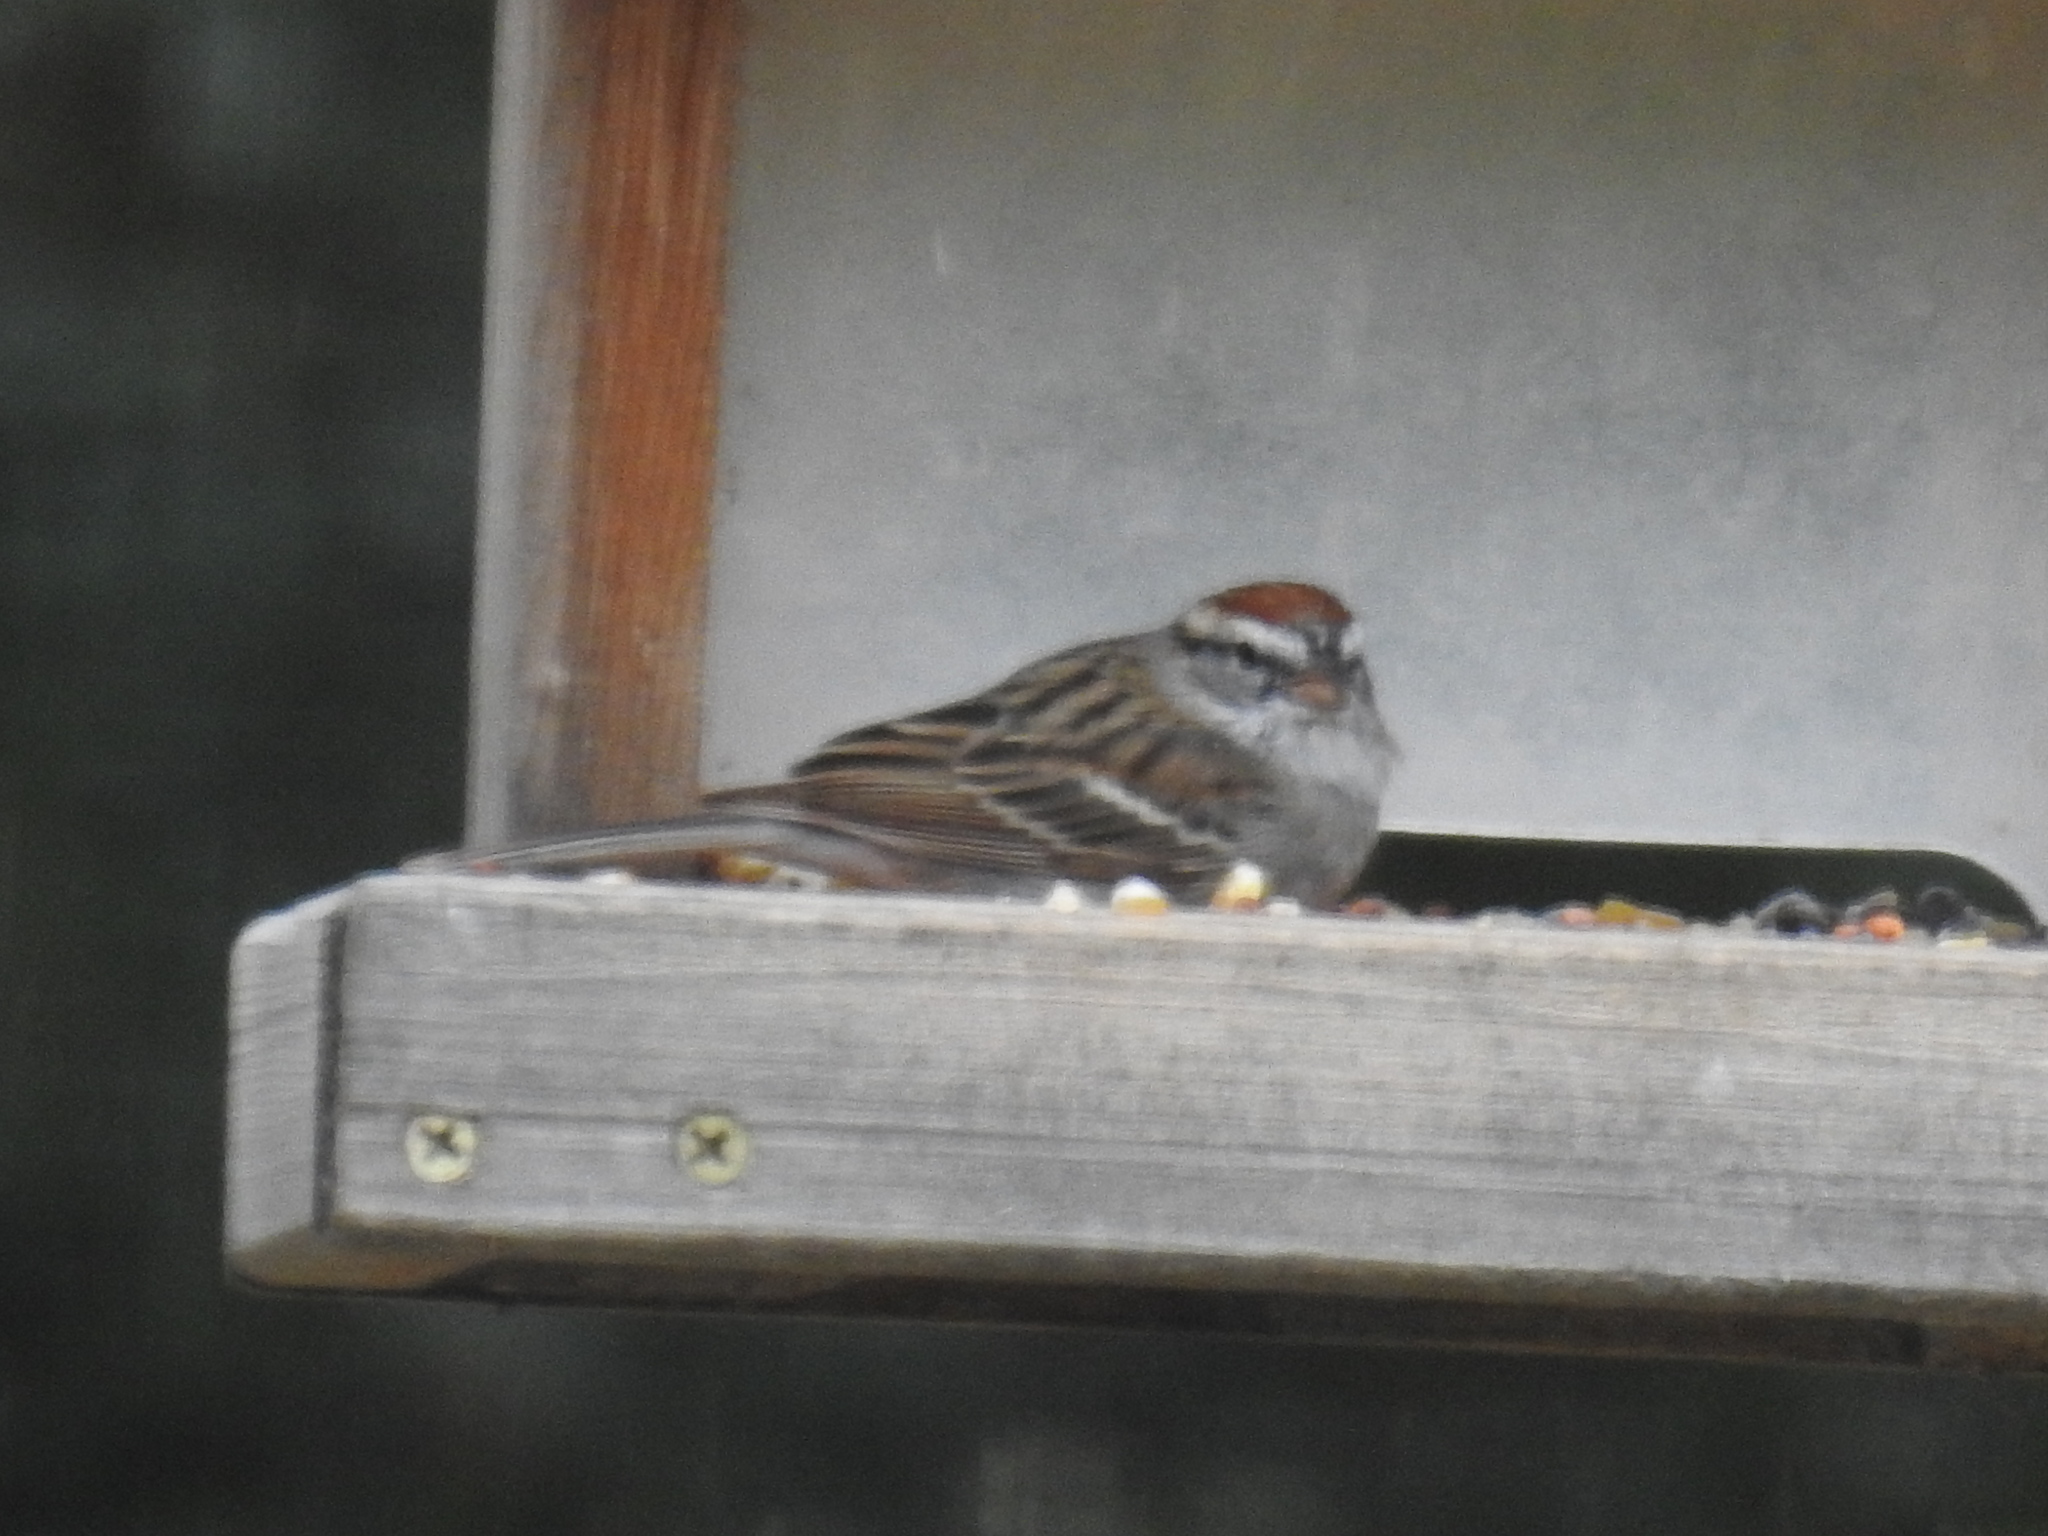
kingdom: Animalia
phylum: Chordata
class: Aves
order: Passeriformes
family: Passerellidae
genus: Spizella
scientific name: Spizella passerina
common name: Chipping sparrow
